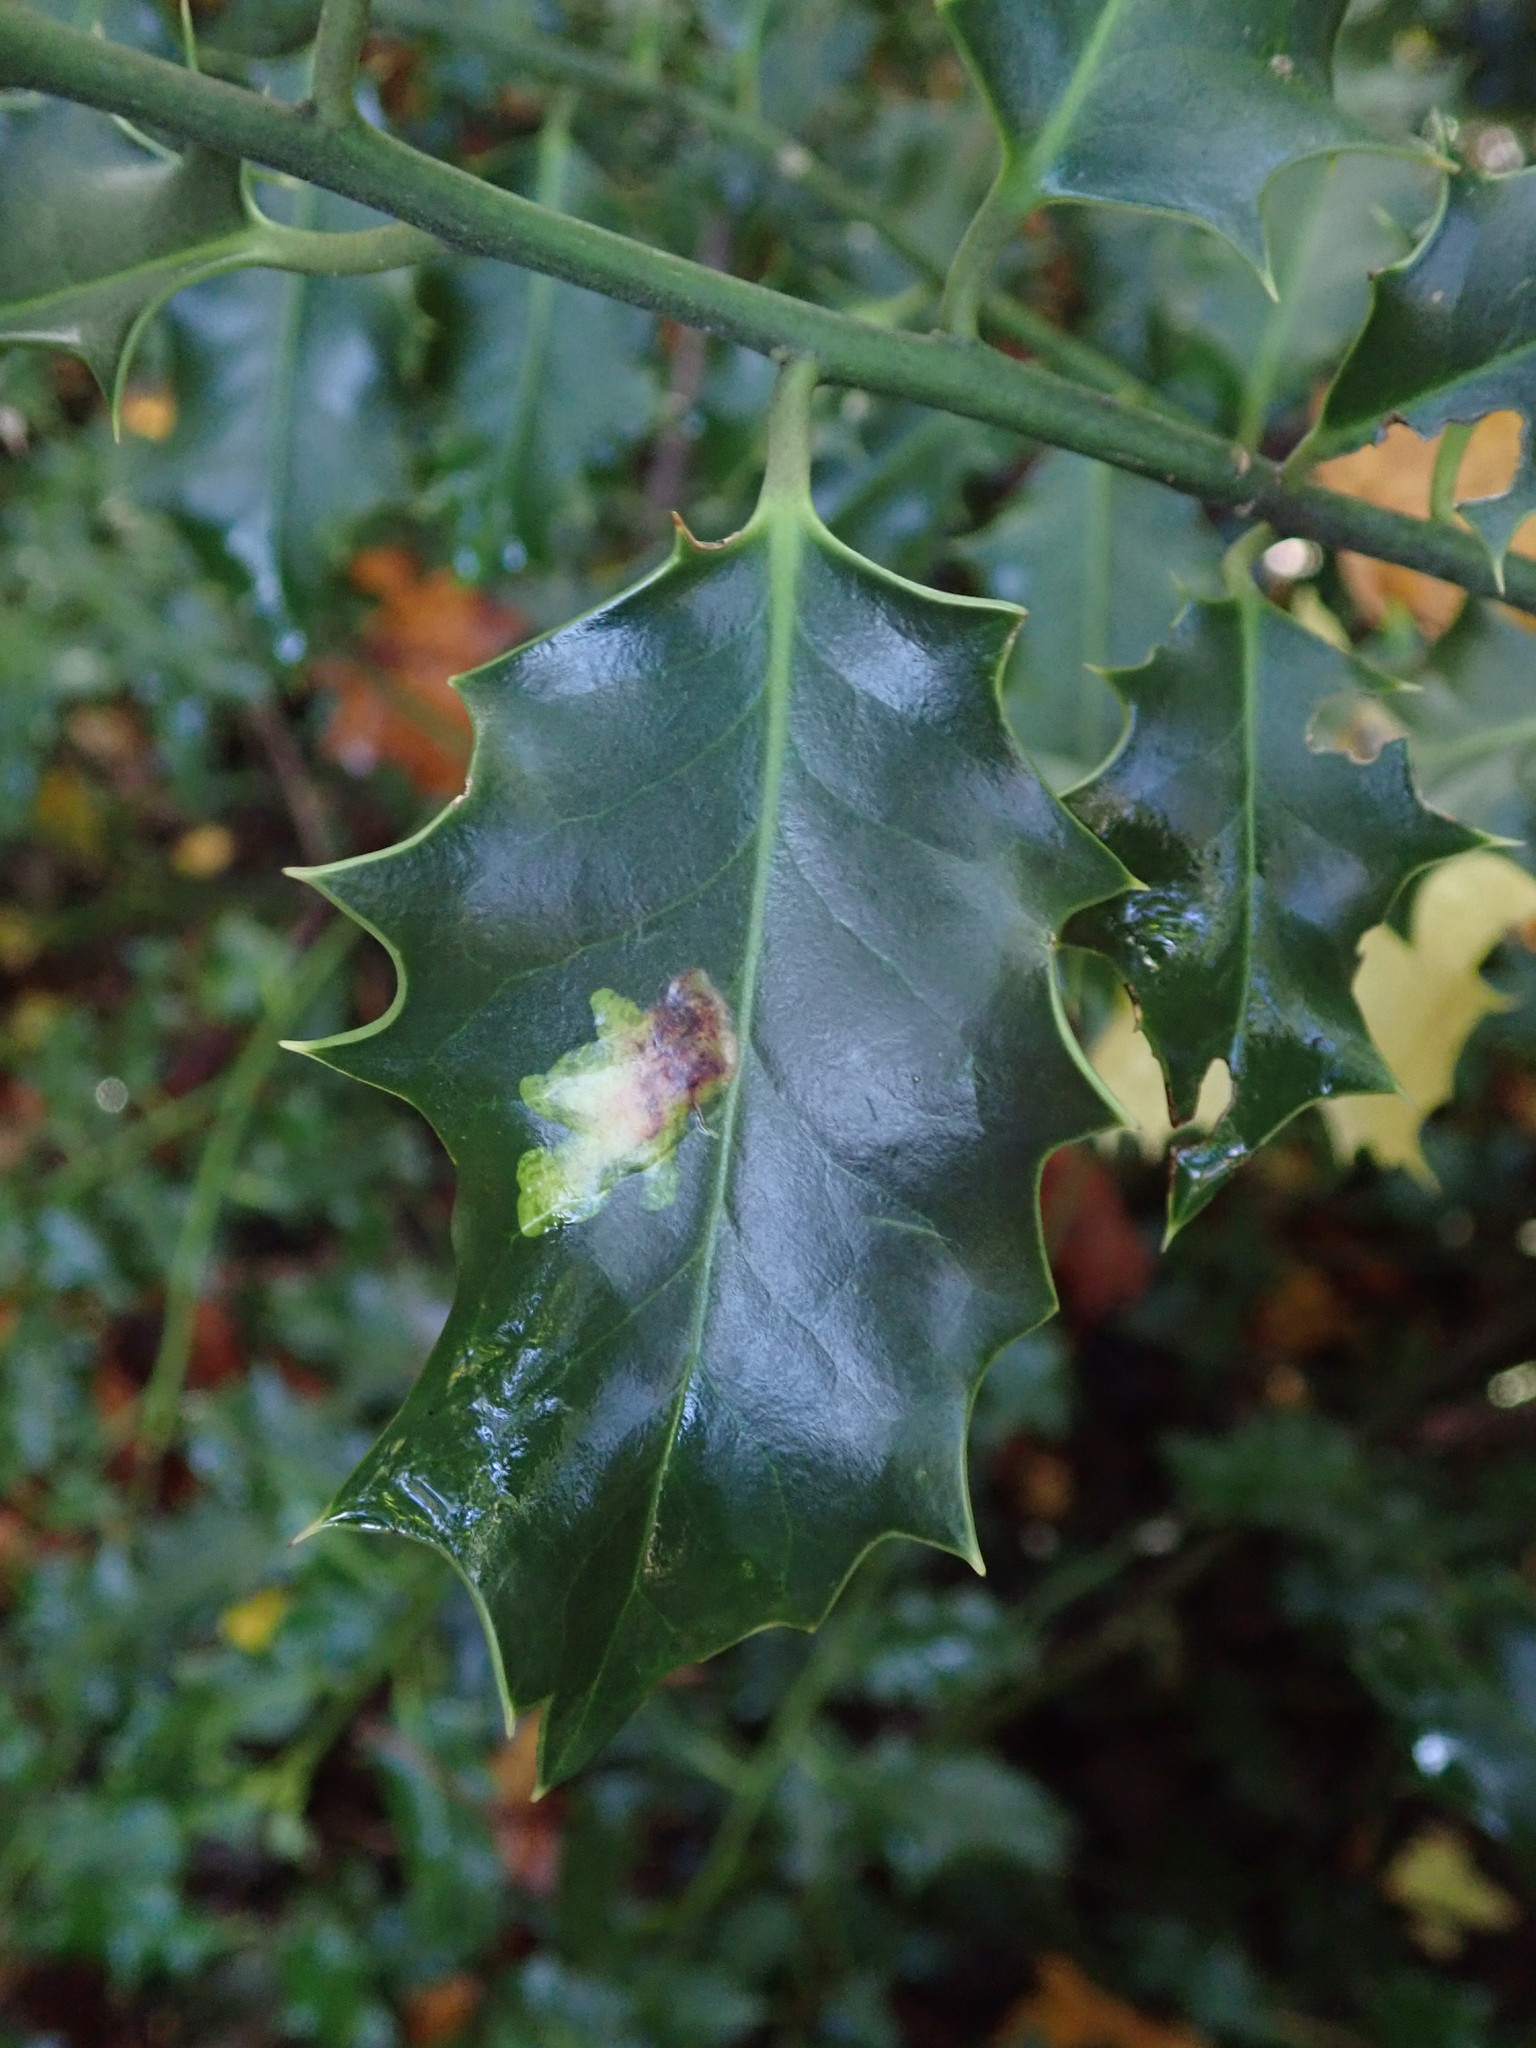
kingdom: Animalia
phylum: Arthropoda
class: Insecta
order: Diptera
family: Agromyzidae
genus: Phytomyza
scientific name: Phytomyza ilicis
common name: Holly leafminer
